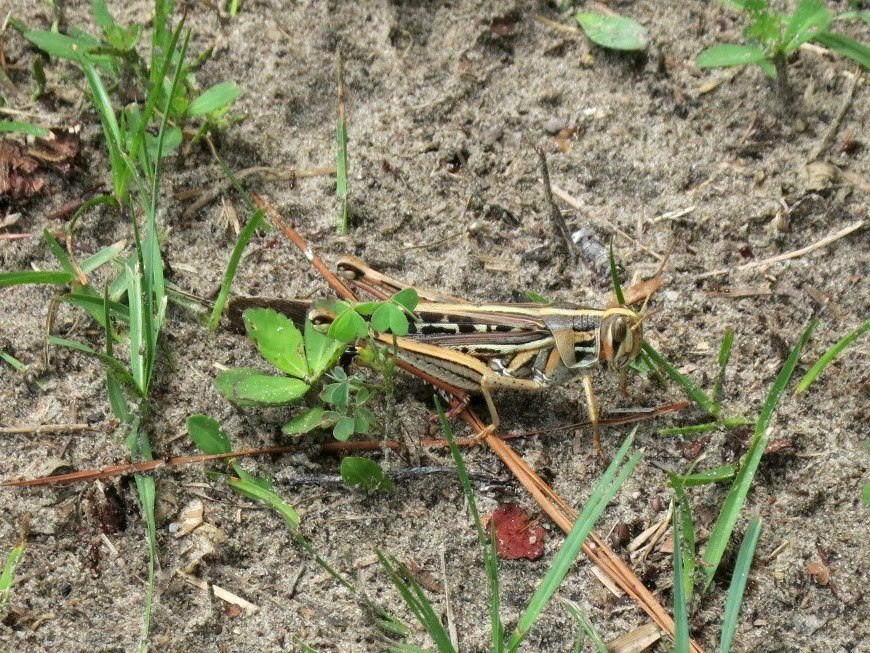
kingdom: Animalia
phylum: Arthropoda
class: Insecta
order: Orthoptera
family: Acrididae
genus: Schistocerca
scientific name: Schistocerca americana
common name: American bird locust
